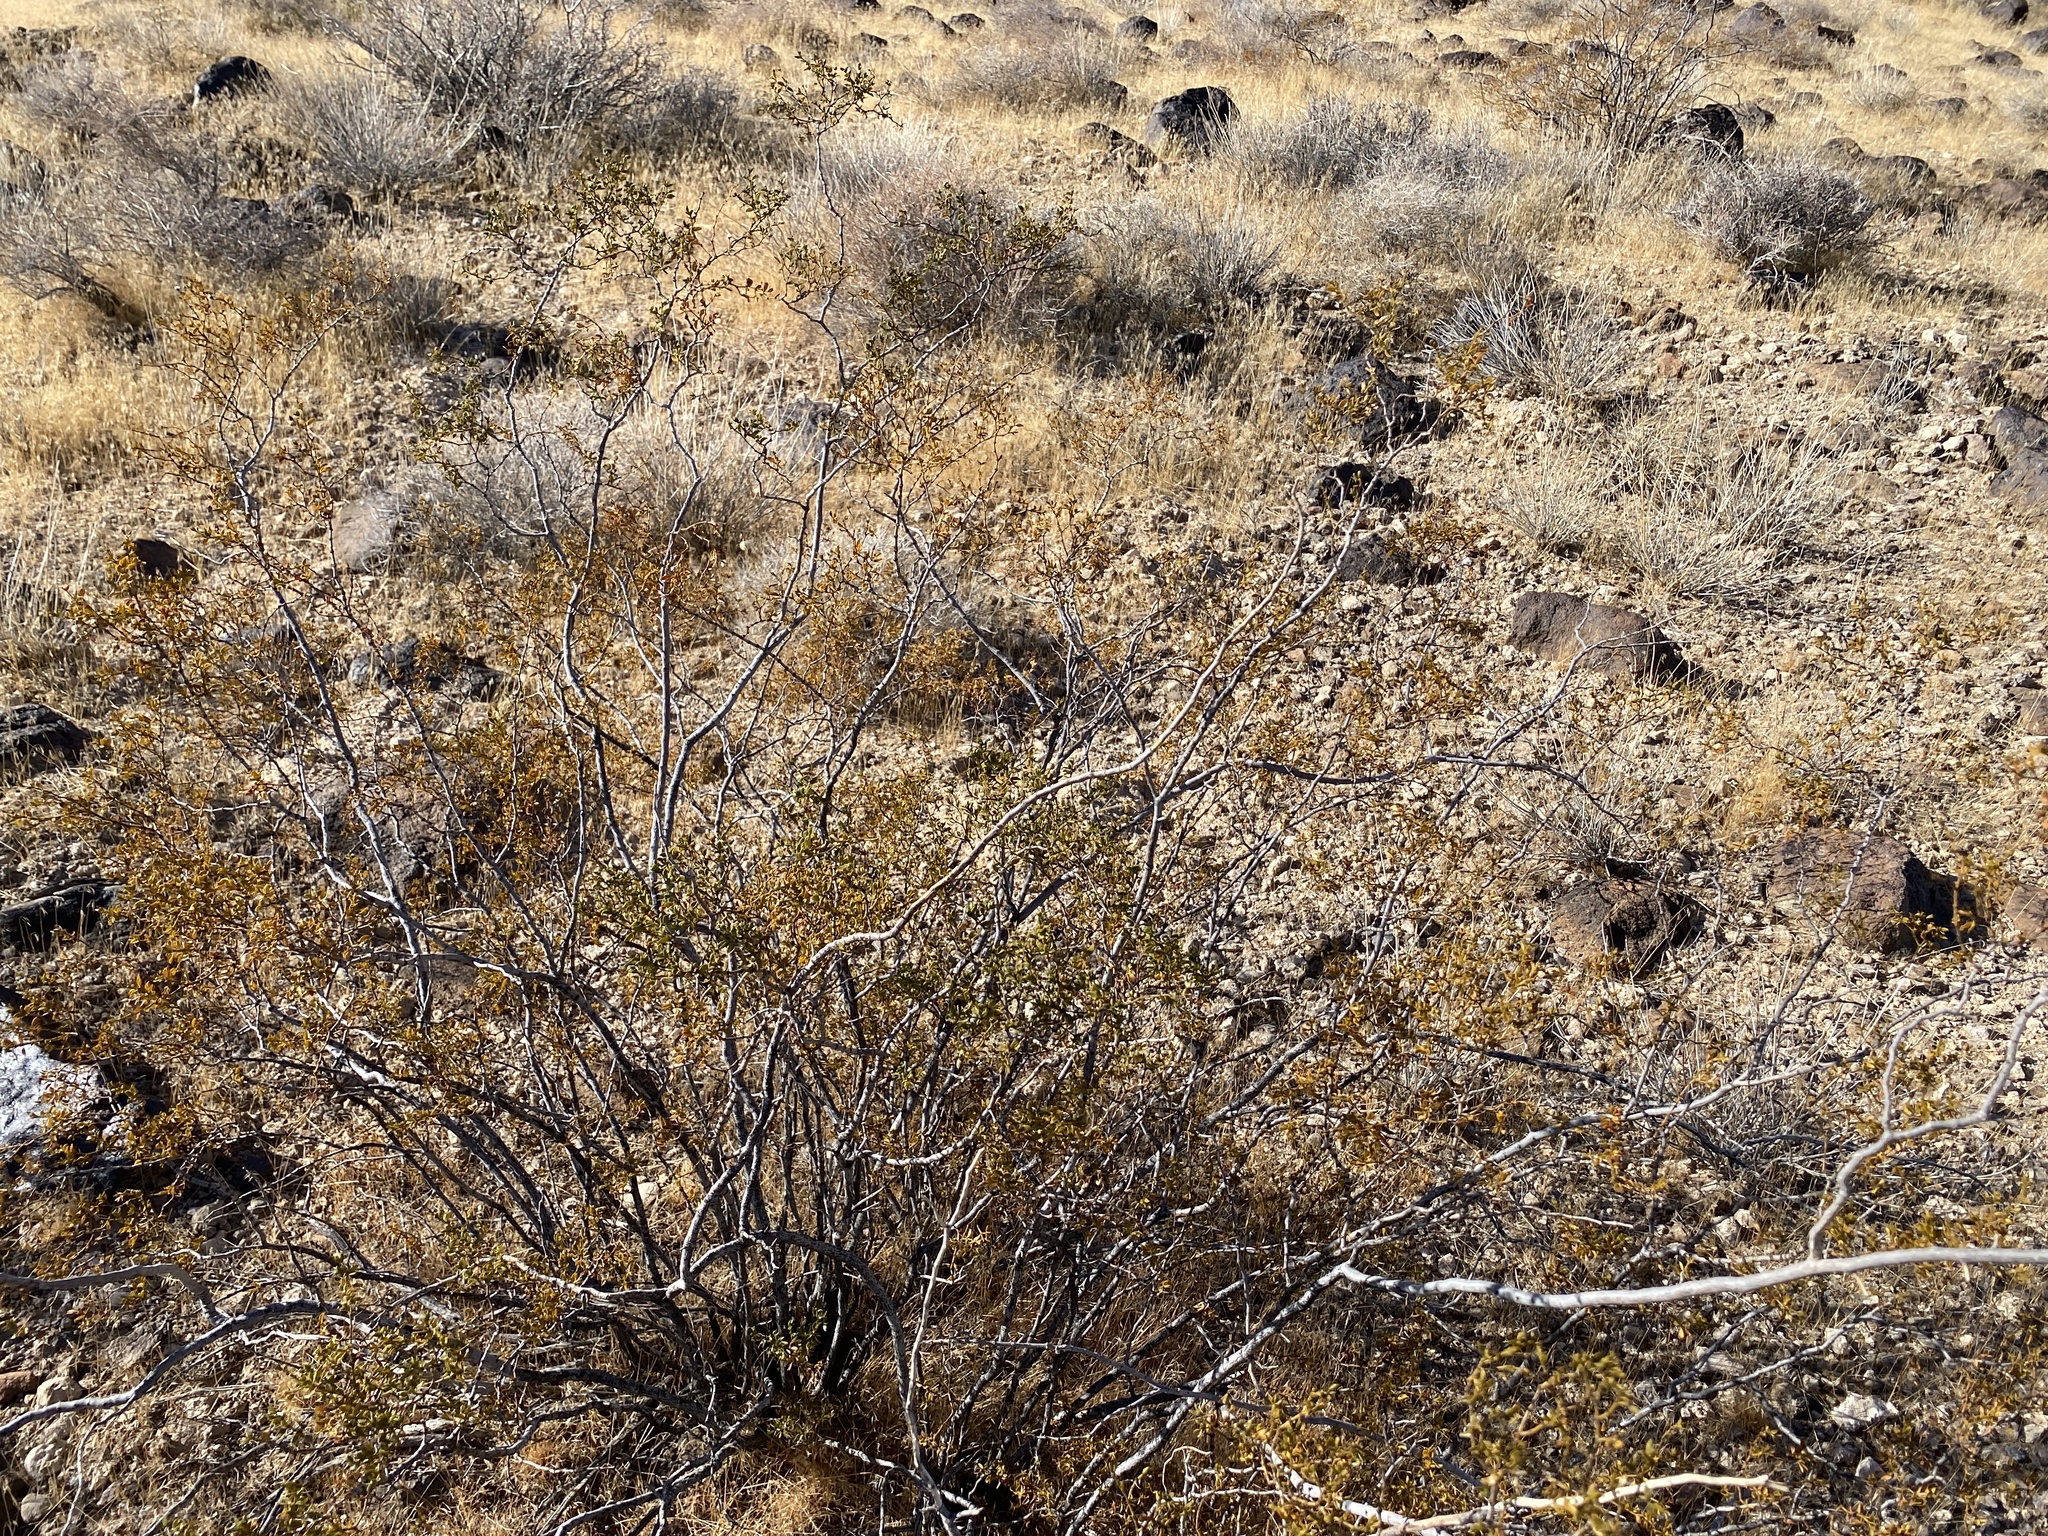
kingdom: Plantae
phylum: Tracheophyta
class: Magnoliopsida
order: Zygophyllales
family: Zygophyllaceae
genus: Larrea
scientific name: Larrea tridentata
